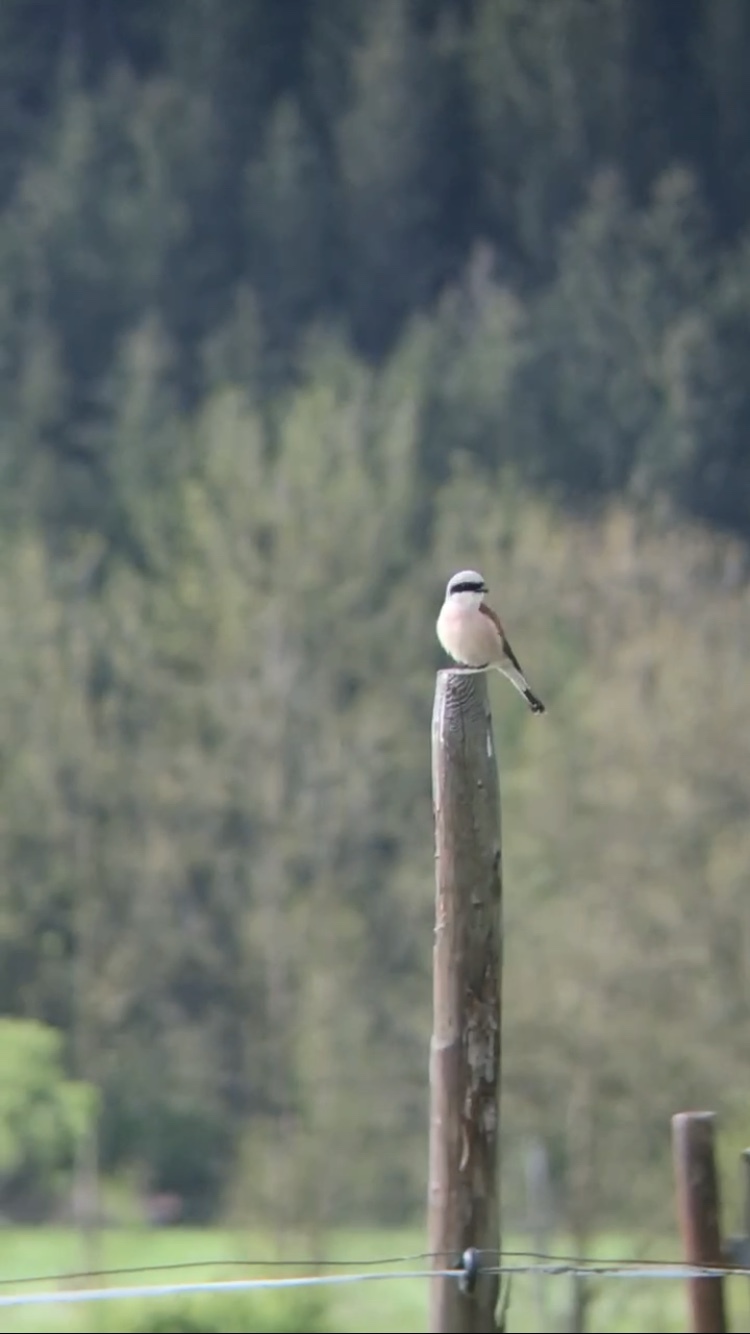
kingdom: Animalia
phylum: Chordata
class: Aves
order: Passeriformes
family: Laniidae
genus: Lanius
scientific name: Lanius collurio
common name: Red-backed shrike
